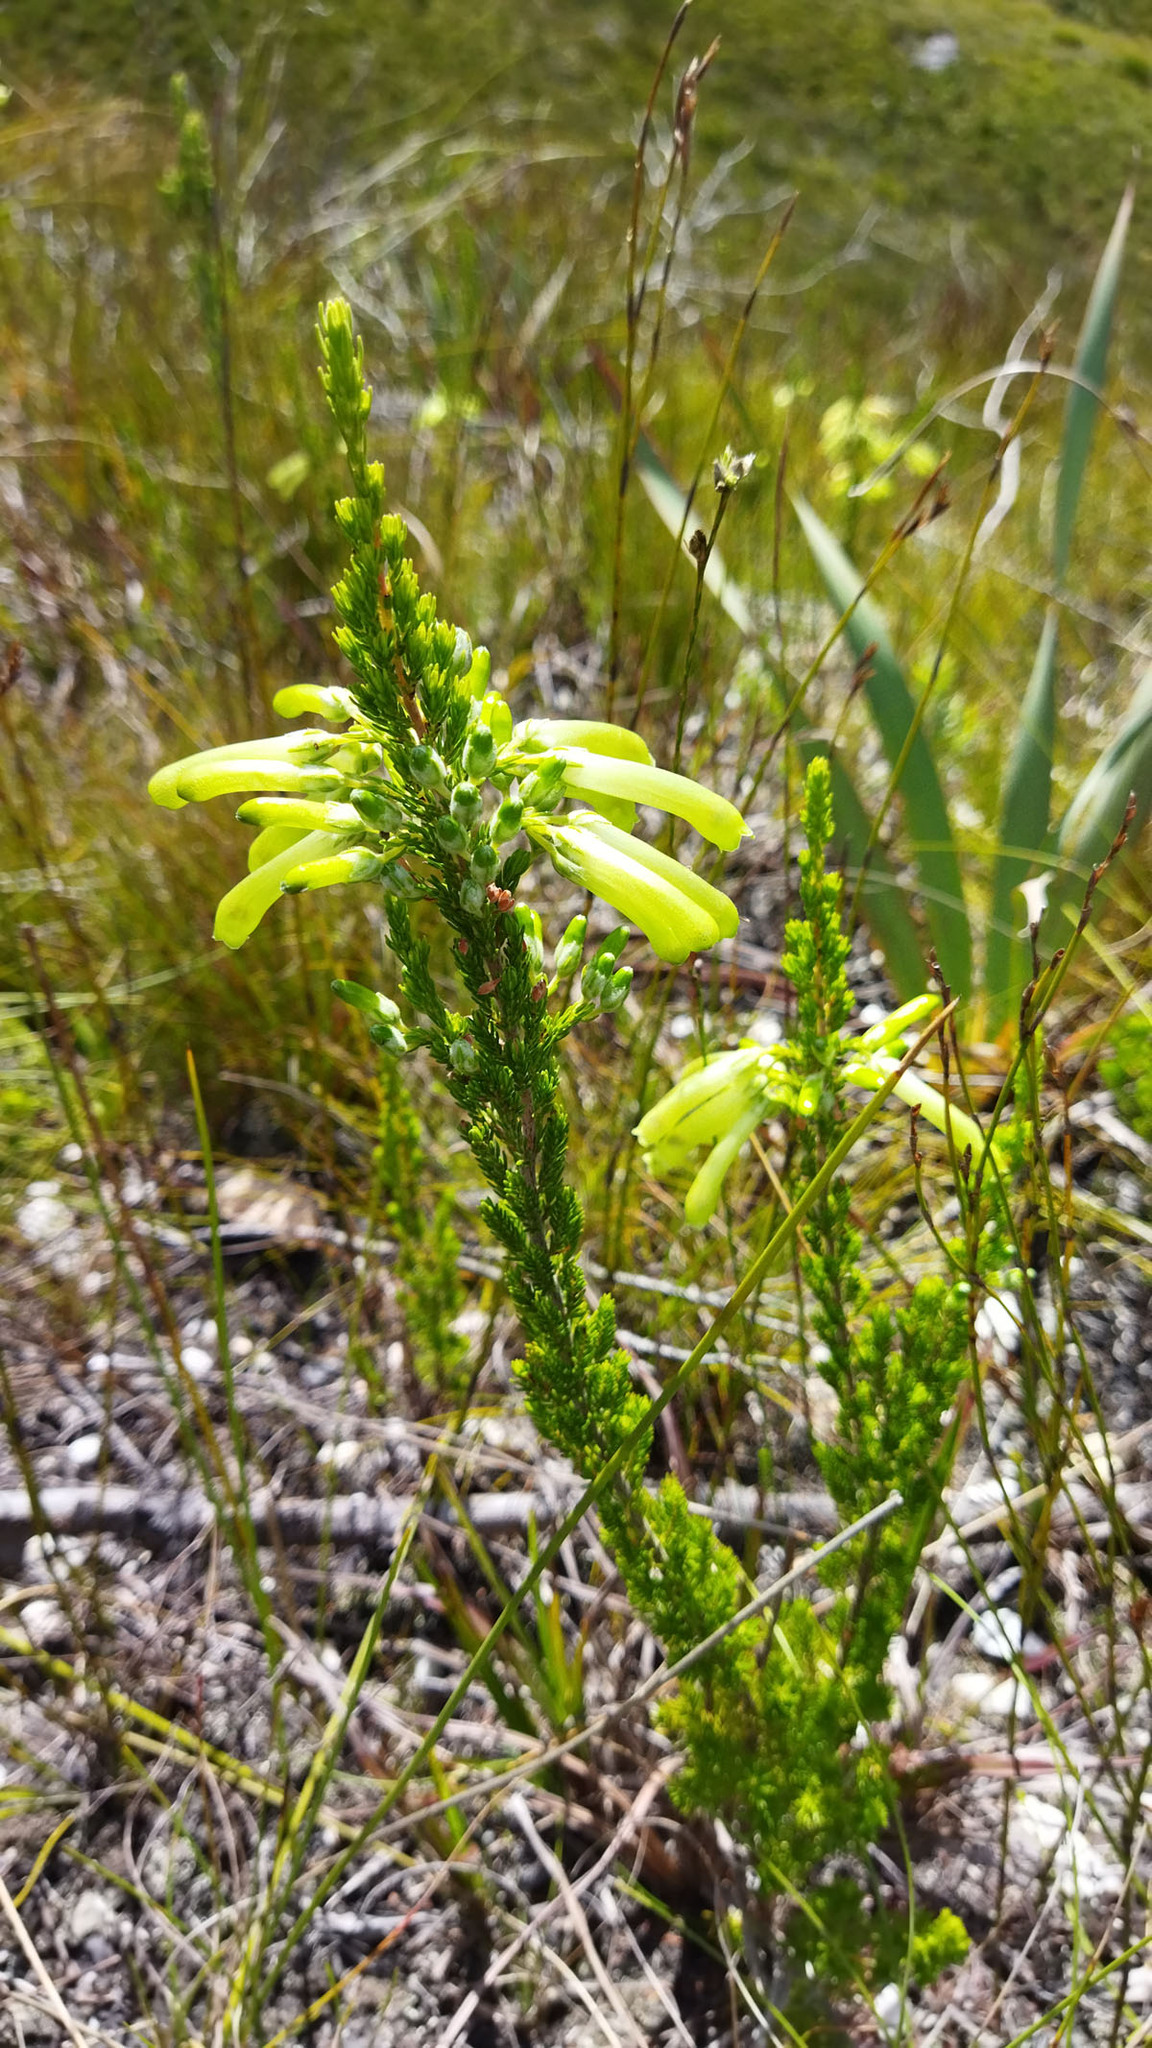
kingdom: Plantae
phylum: Tracheophyta
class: Magnoliopsida
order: Ericales
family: Ericaceae
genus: Erica
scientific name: Erica discolor
